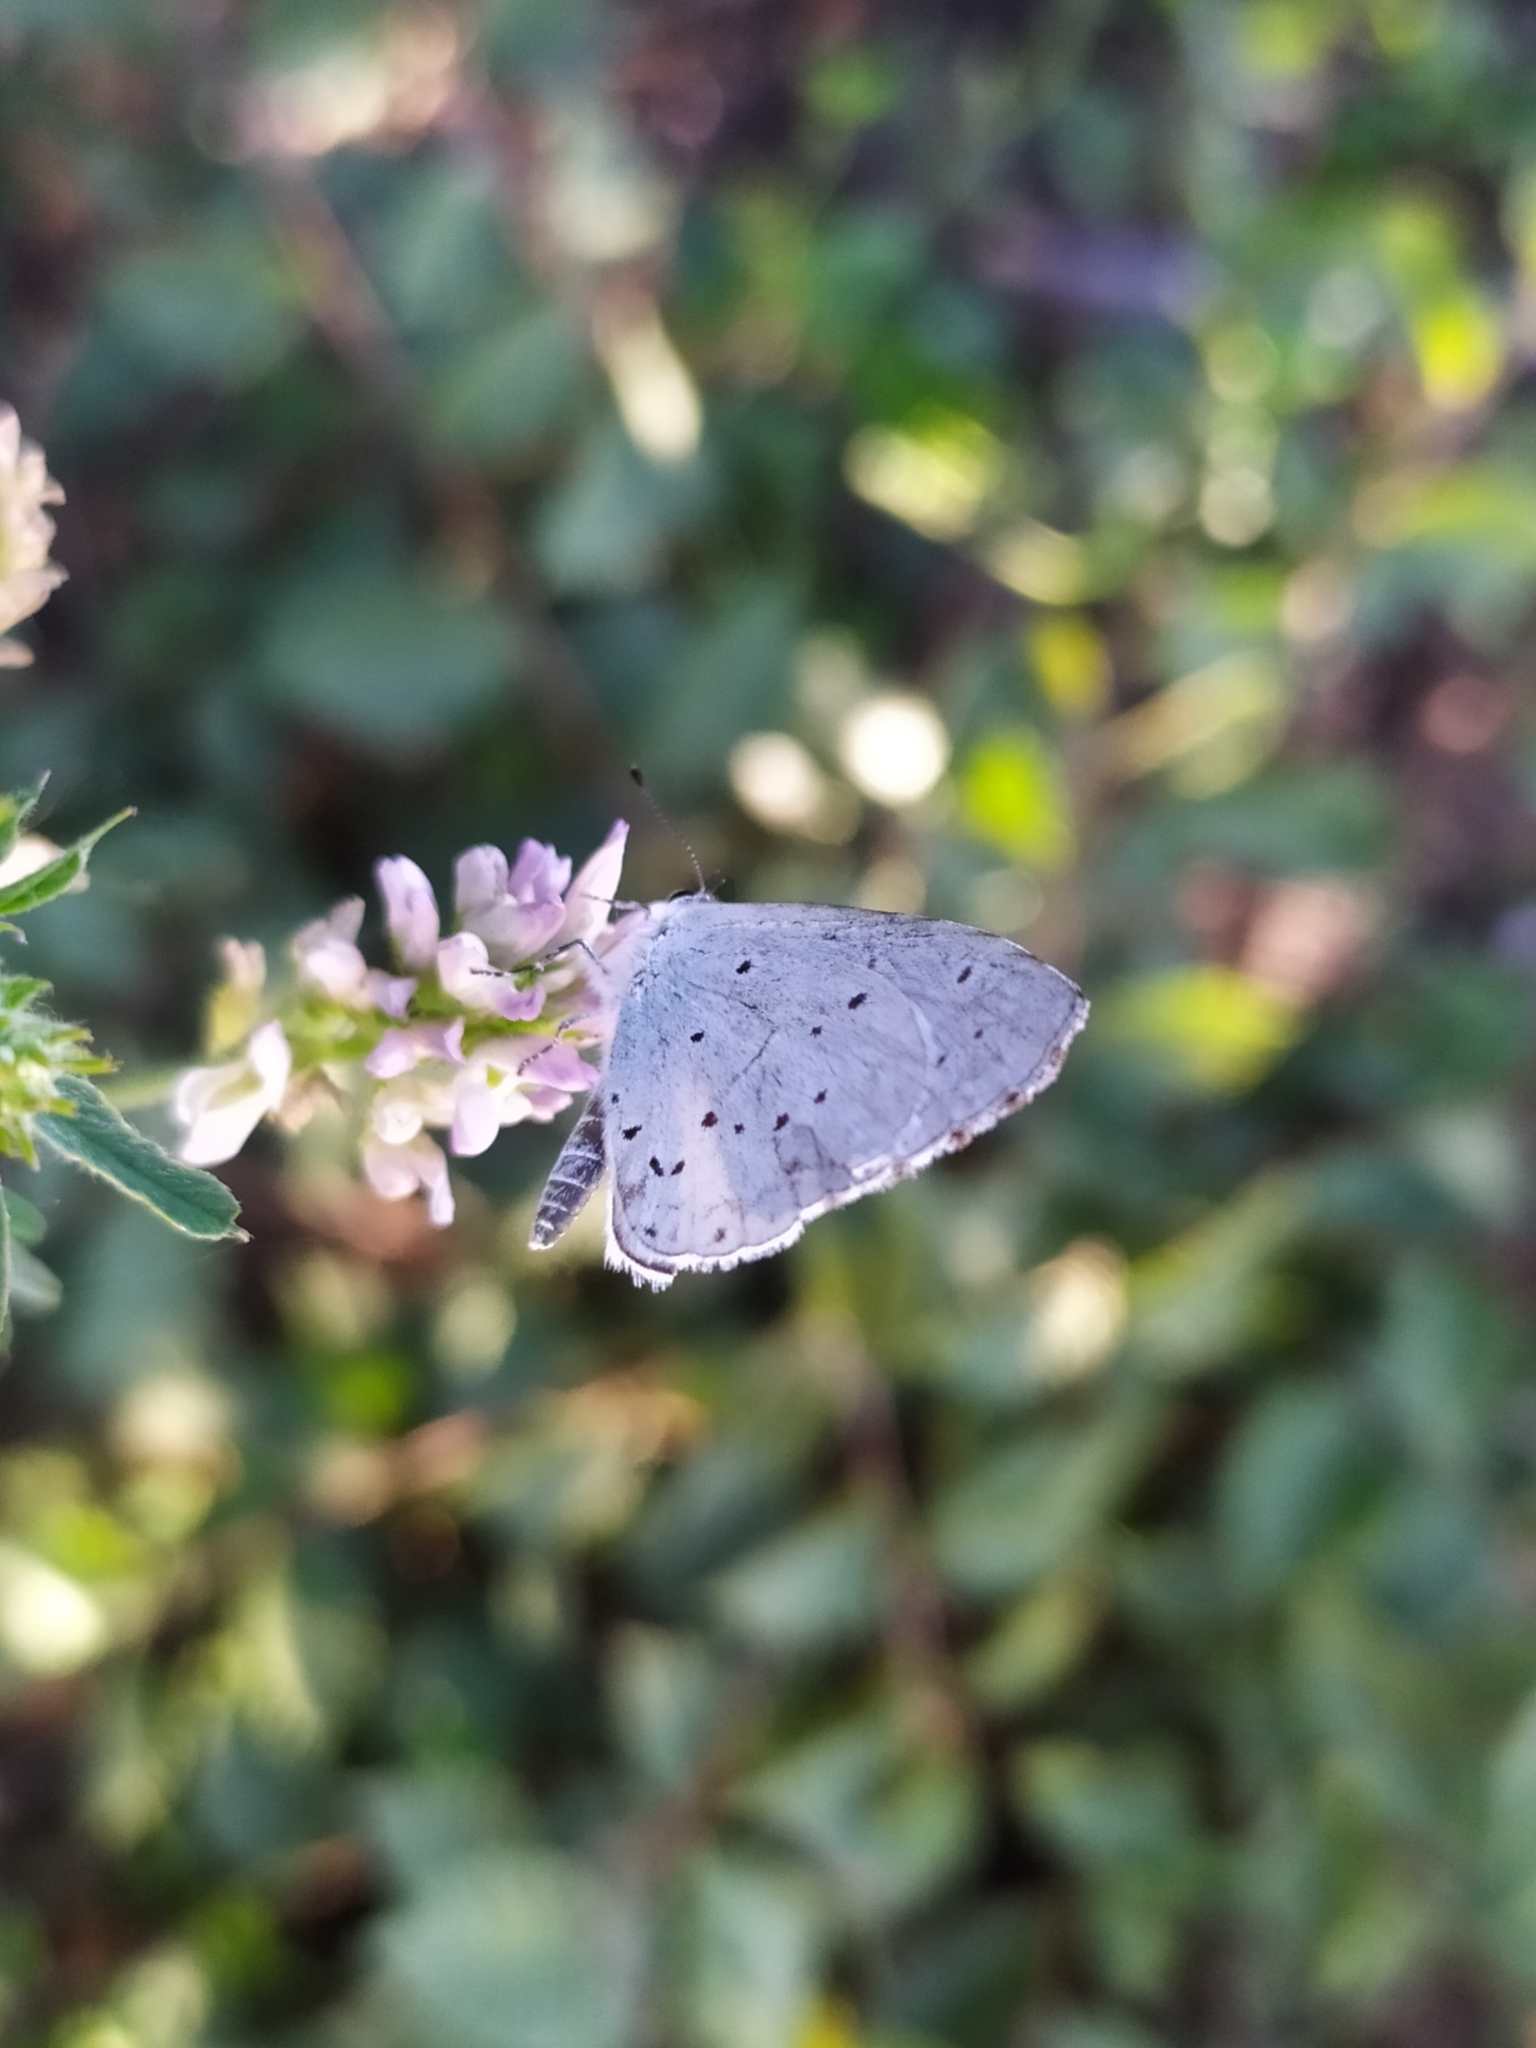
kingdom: Animalia
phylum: Arthropoda
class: Insecta
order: Lepidoptera
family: Lycaenidae
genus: Celastrina
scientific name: Celastrina argiolus
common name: Holly blue
